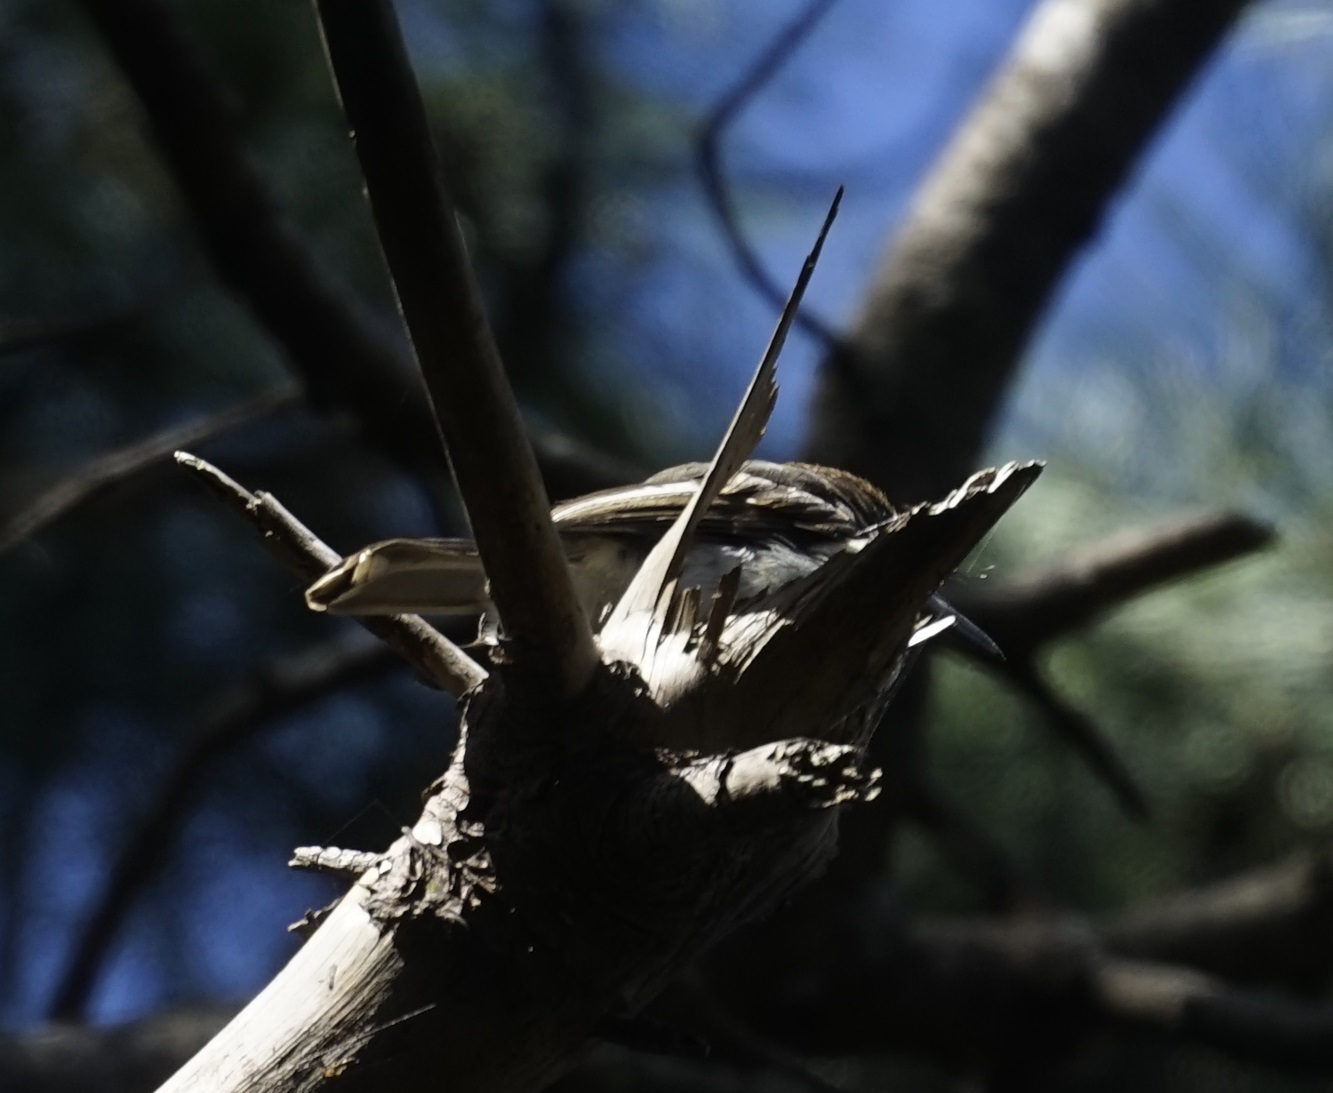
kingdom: Animalia
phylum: Chordata
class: Aves
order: Passeriformes
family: Cracticidae
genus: Cracticus
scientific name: Cracticus torquatus
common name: Grey butcherbird
